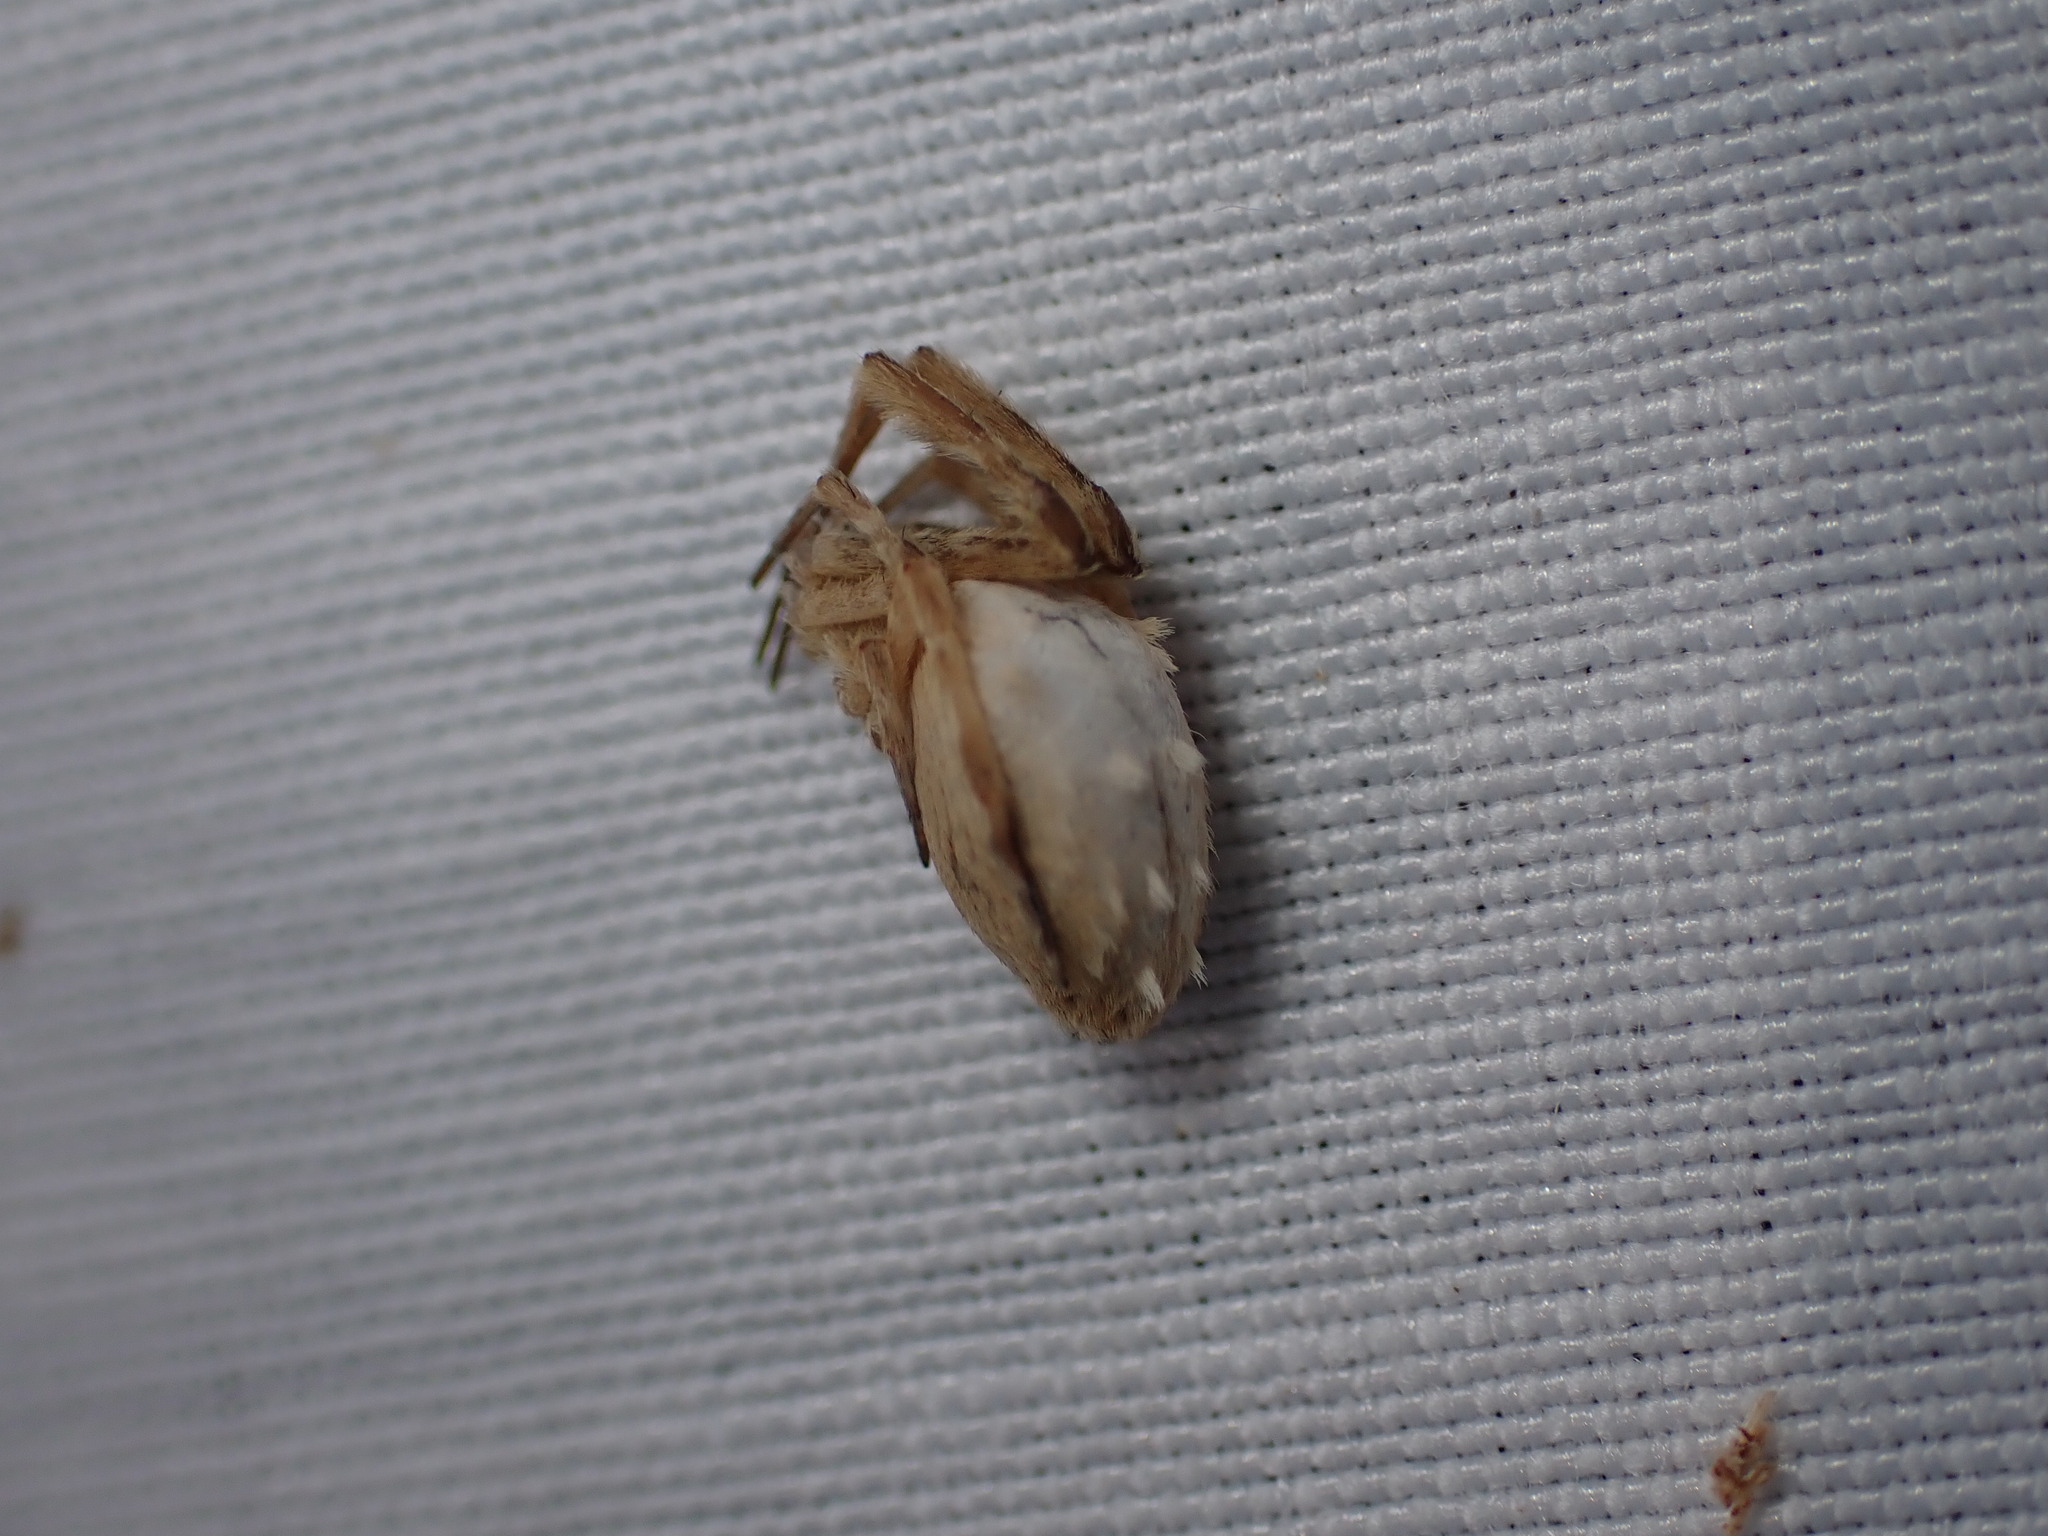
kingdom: Animalia
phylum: Arthropoda
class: Arachnida
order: Araneae
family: Uloboridae
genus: Uloborus
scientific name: Uloborus walckenaerius
